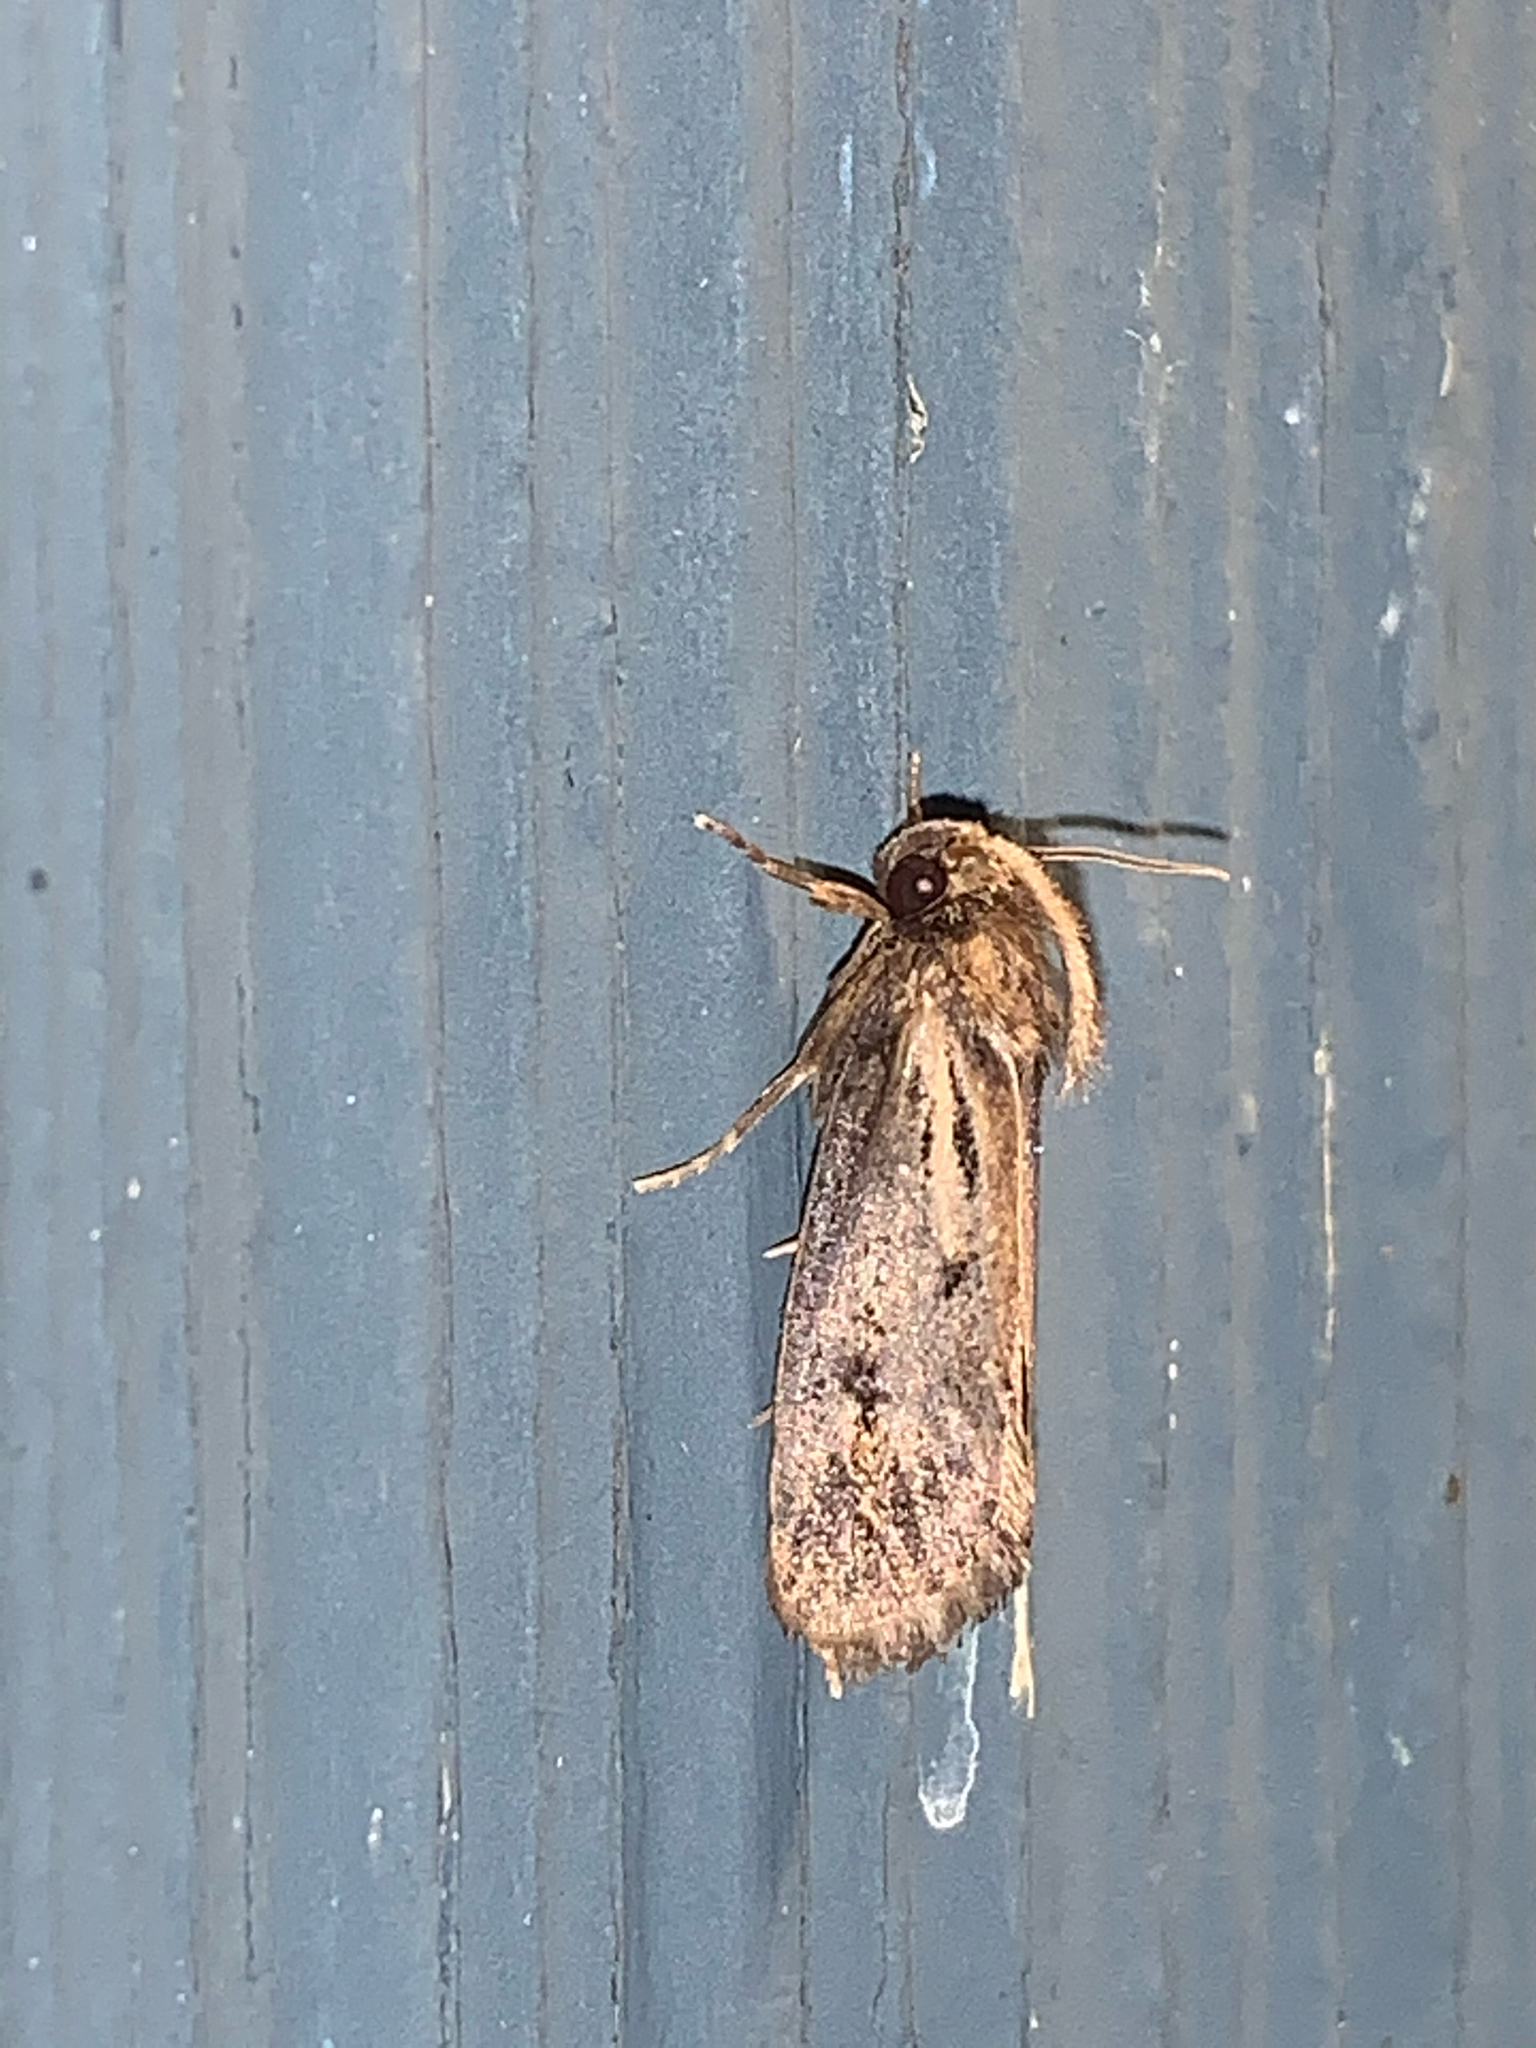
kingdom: Animalia
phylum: Arthropoda
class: Insecta
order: Lepidoptera
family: Tineidae
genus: Acrolophus
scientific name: Acrolophus popeanella
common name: Clemens' grass tubeworm moth
